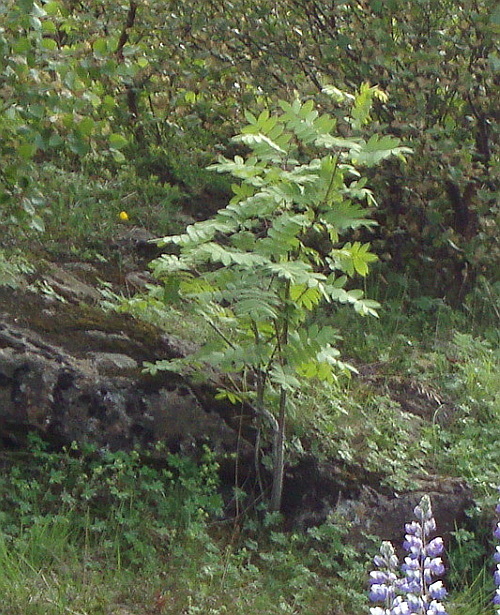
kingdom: Plantae
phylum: Tracheophyta
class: Magnoliopsida
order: Rosales
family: Rosaceae
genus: Sorbus
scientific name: Sorbus aucuparia
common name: Rowan
